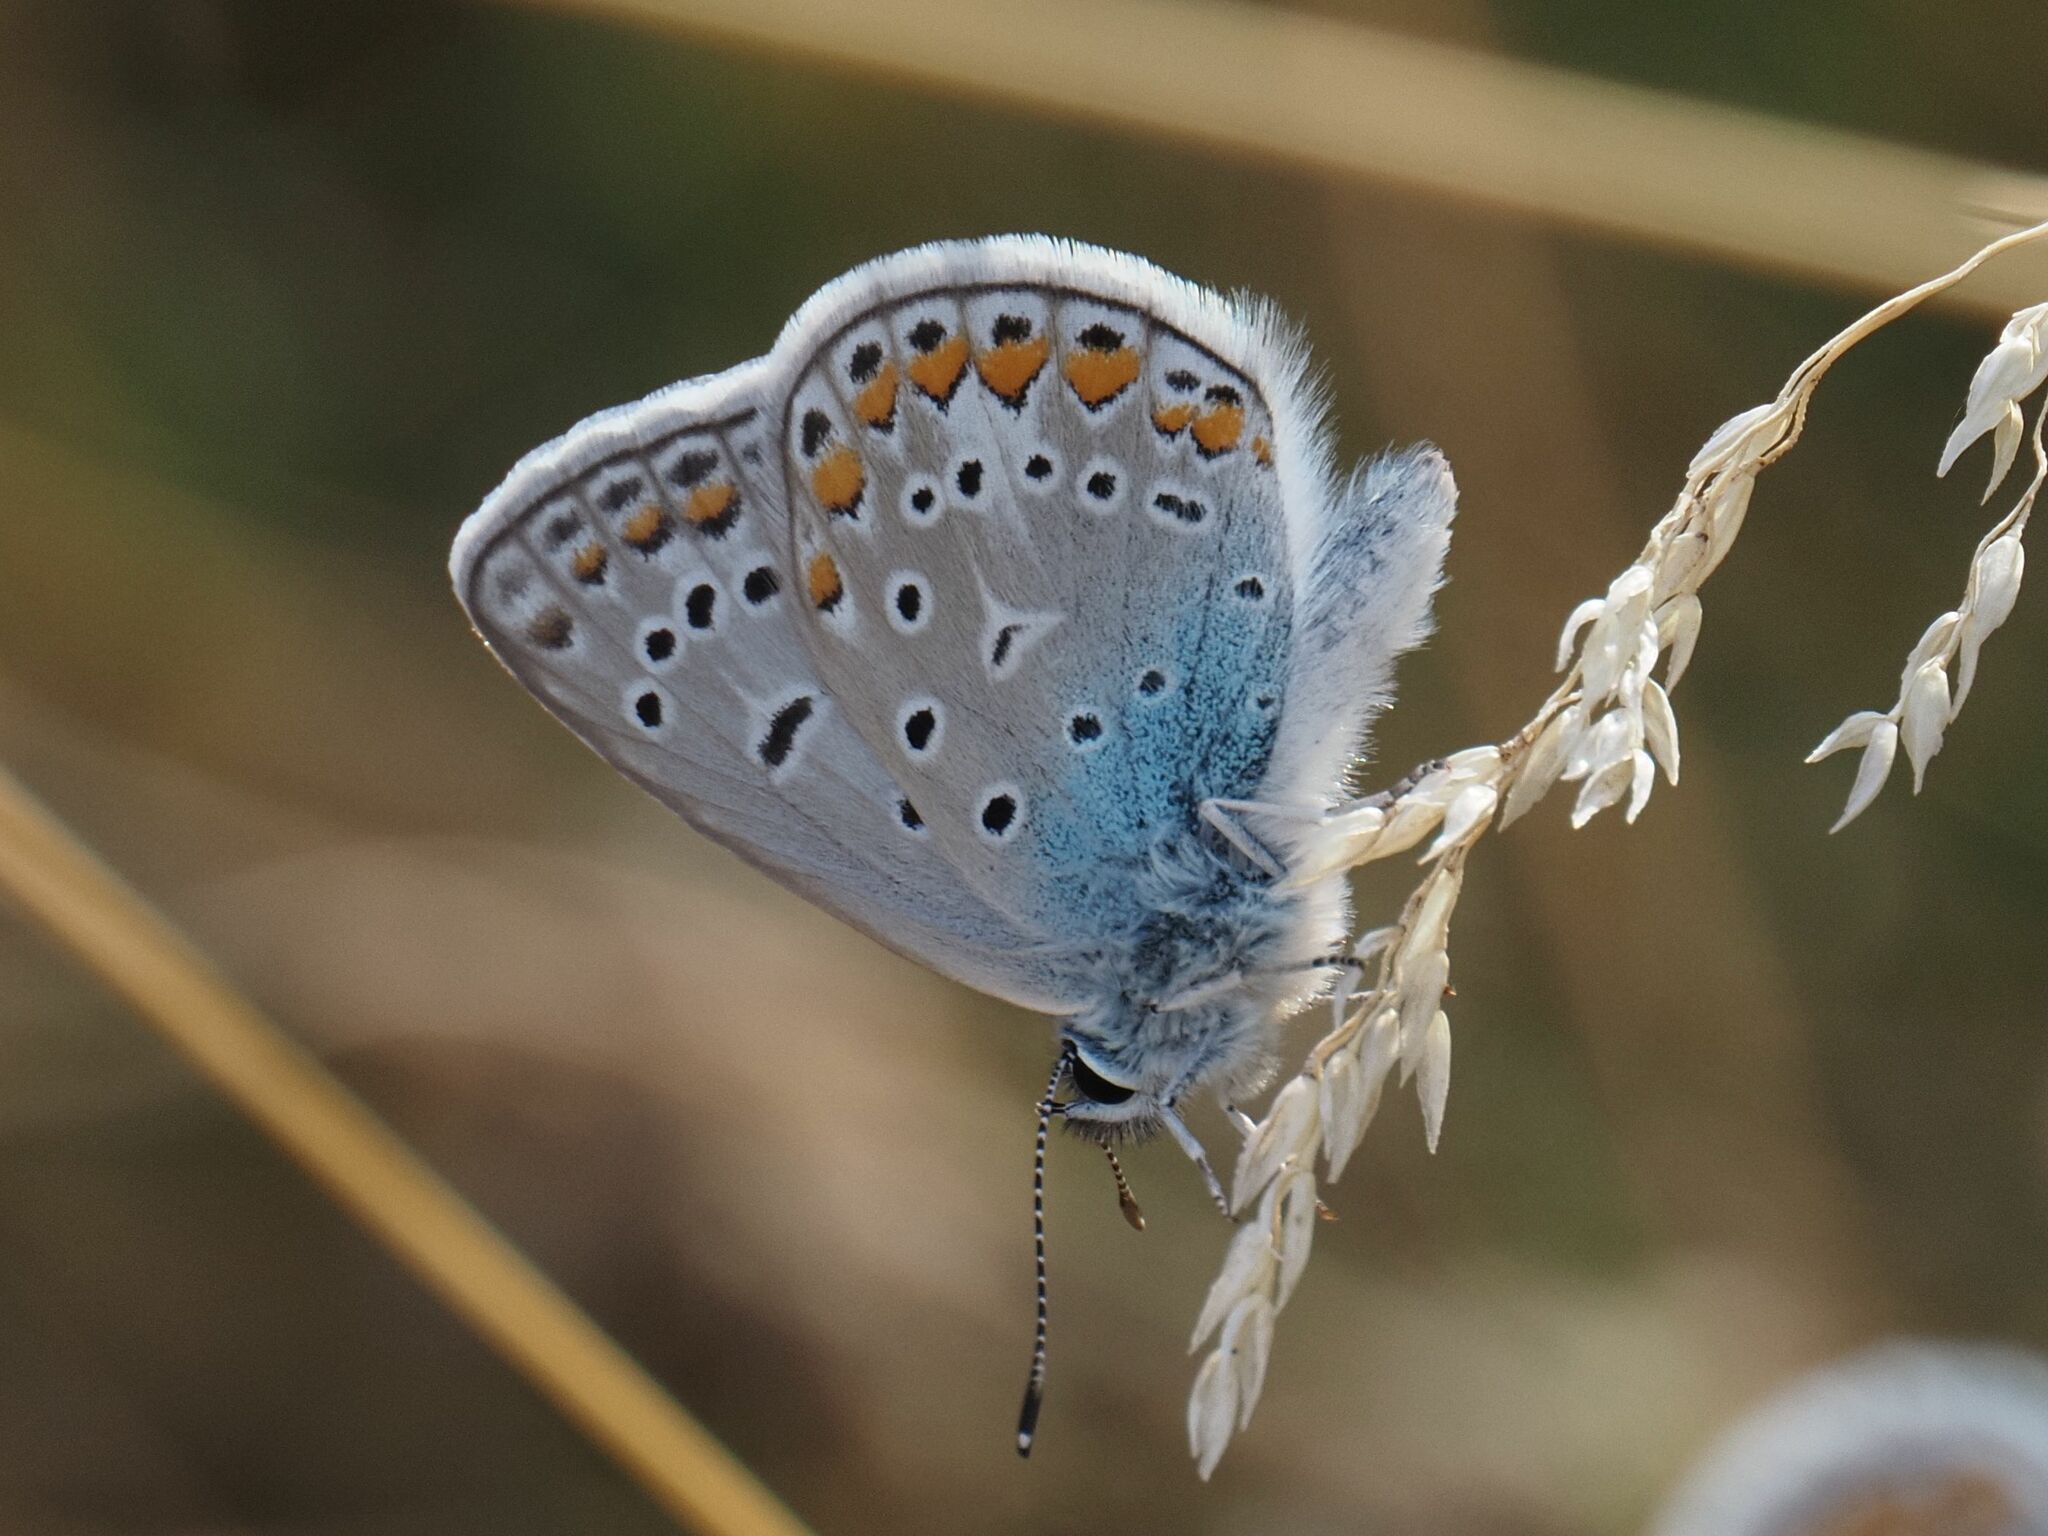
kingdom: Animalia
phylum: Arthropoda
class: Insecta
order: Lepidoptera
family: Lycaenidae
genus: Polyommatus
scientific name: Polyommatus icarus
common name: Common blue
